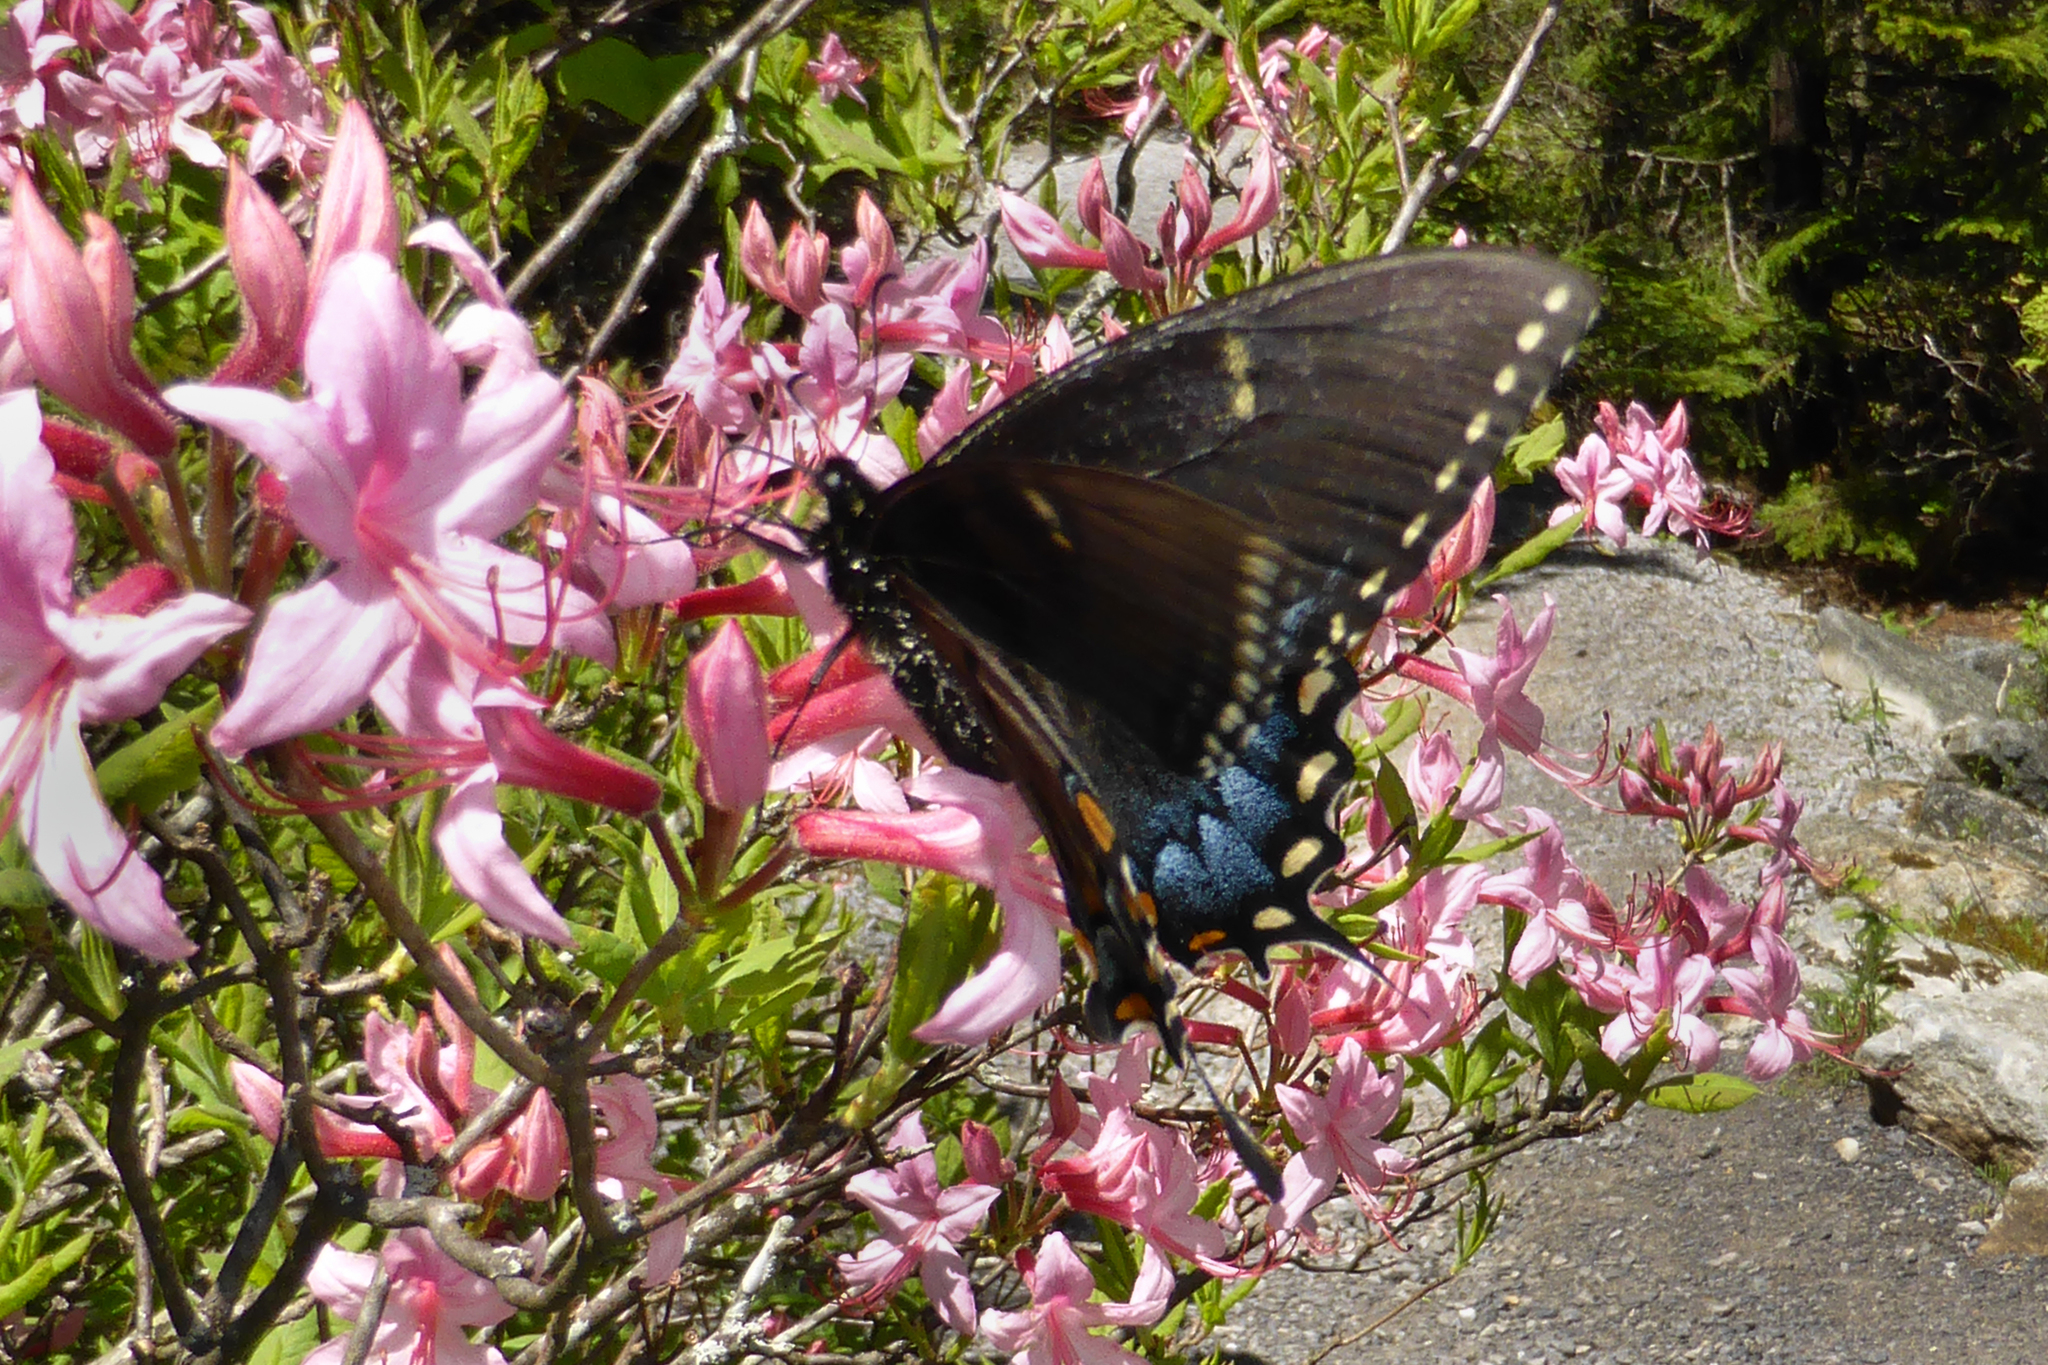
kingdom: Animalia
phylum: Arthropoda
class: Insecta
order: Lepidoptera
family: Papilionidae
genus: Papilio
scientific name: Papilio glaucus
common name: Tiger swallowtail
